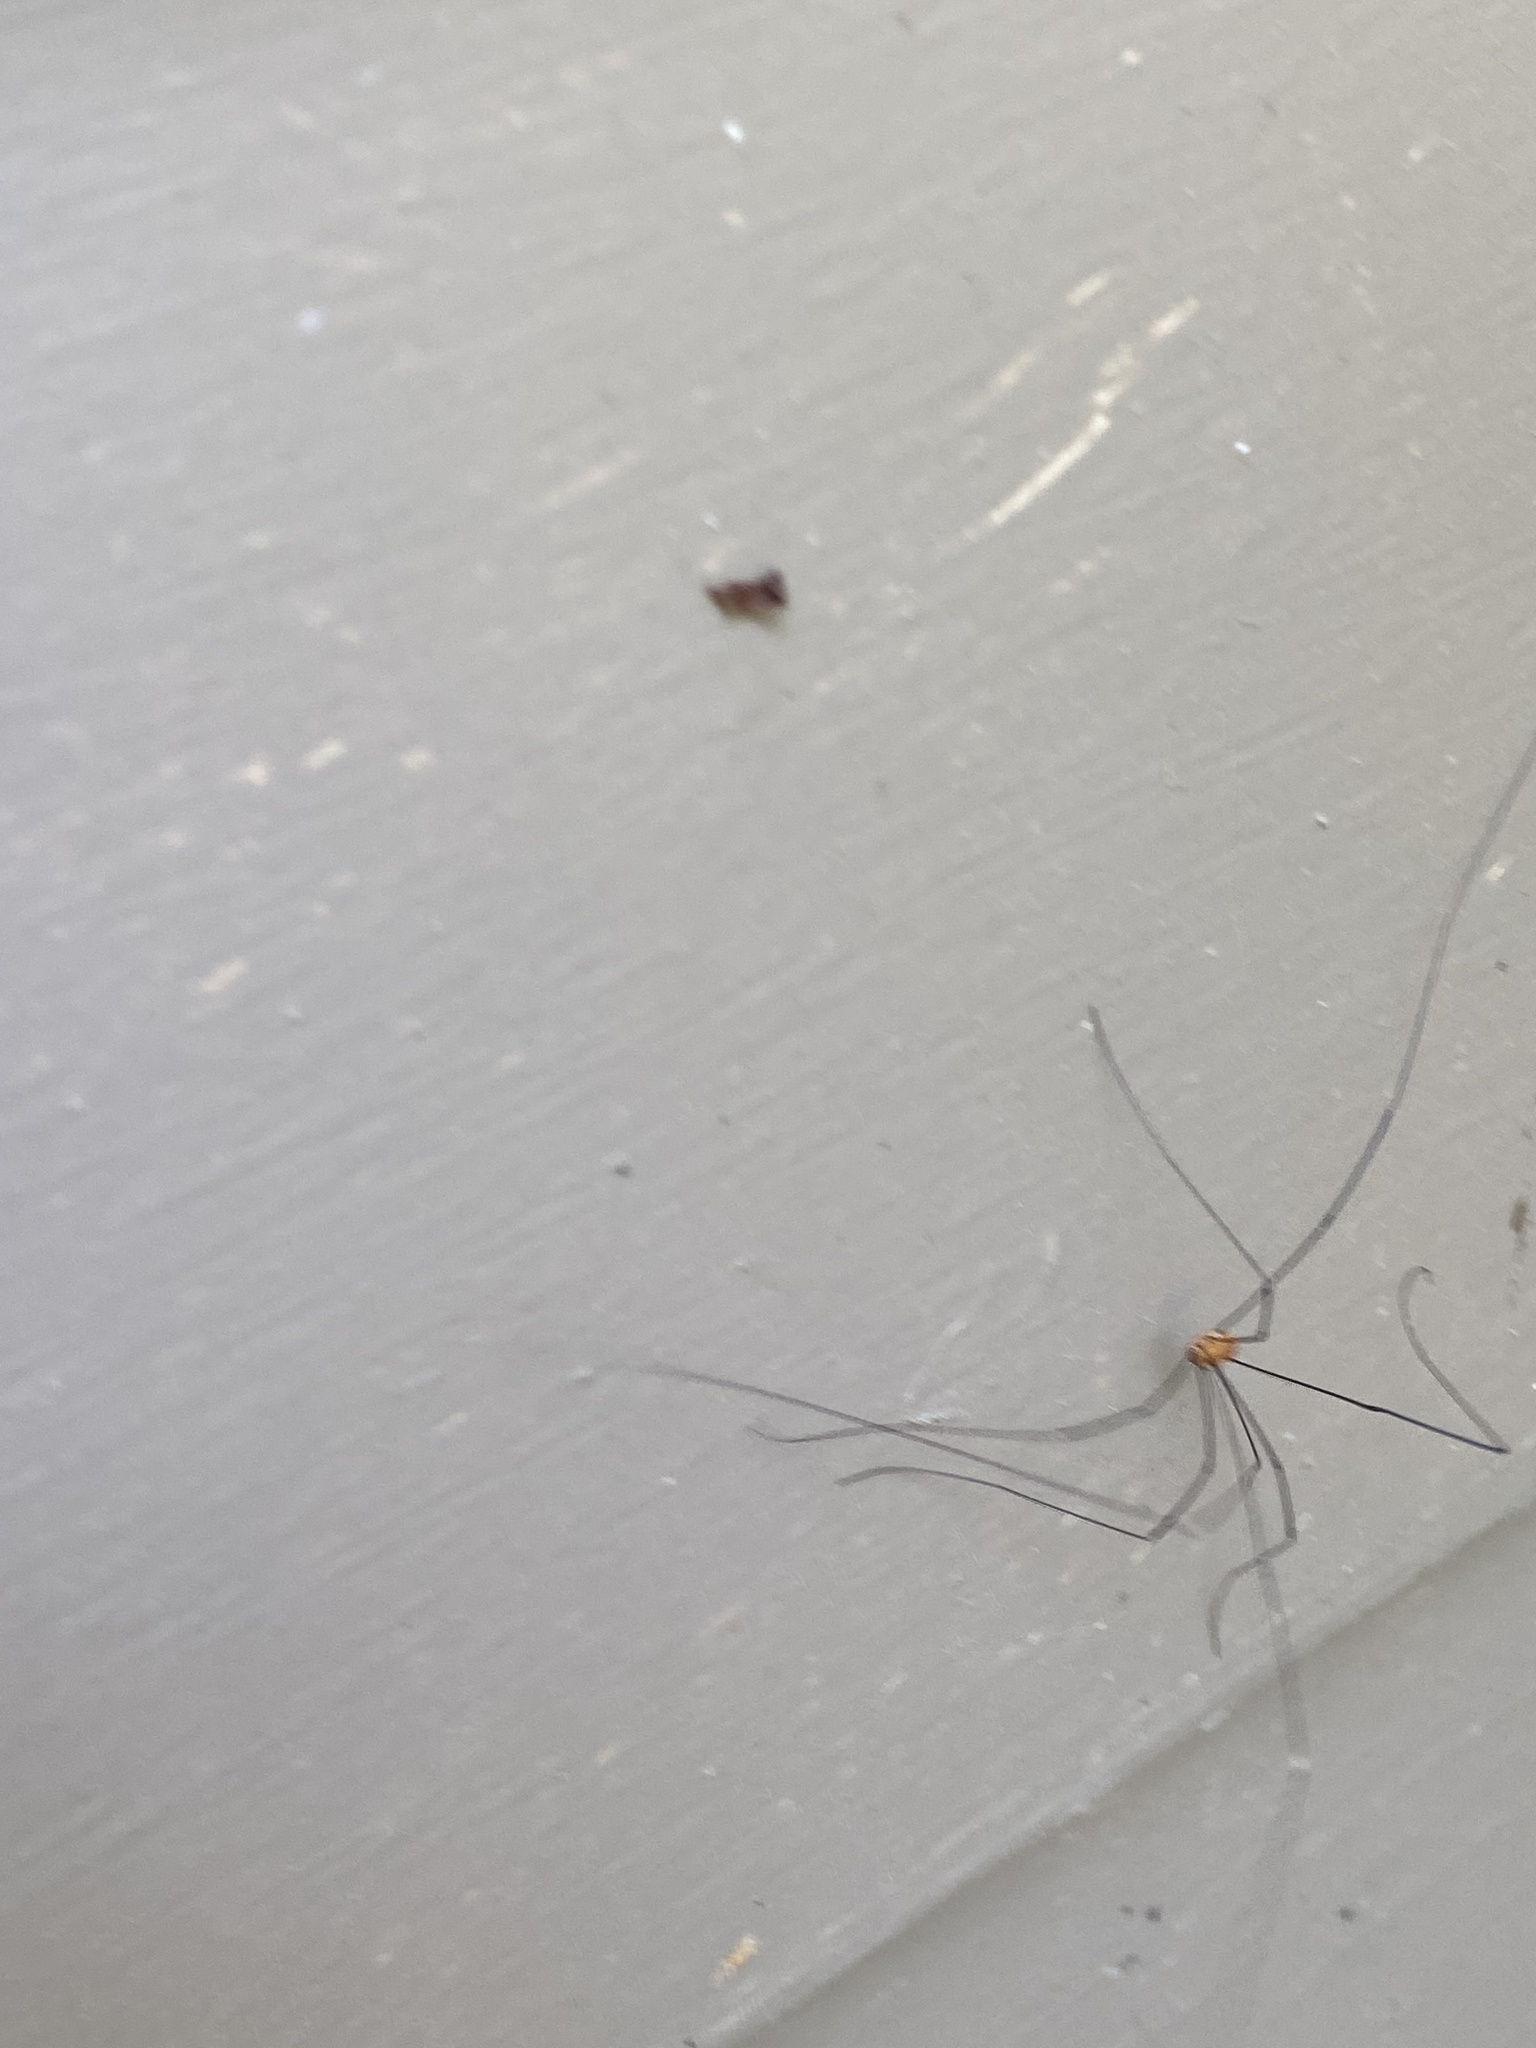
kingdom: Animalia
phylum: Arthropoda
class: Arachnida
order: Opiliones
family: Sclerosomatidae
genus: Leiobunum
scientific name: Leiobunum aldrichi
